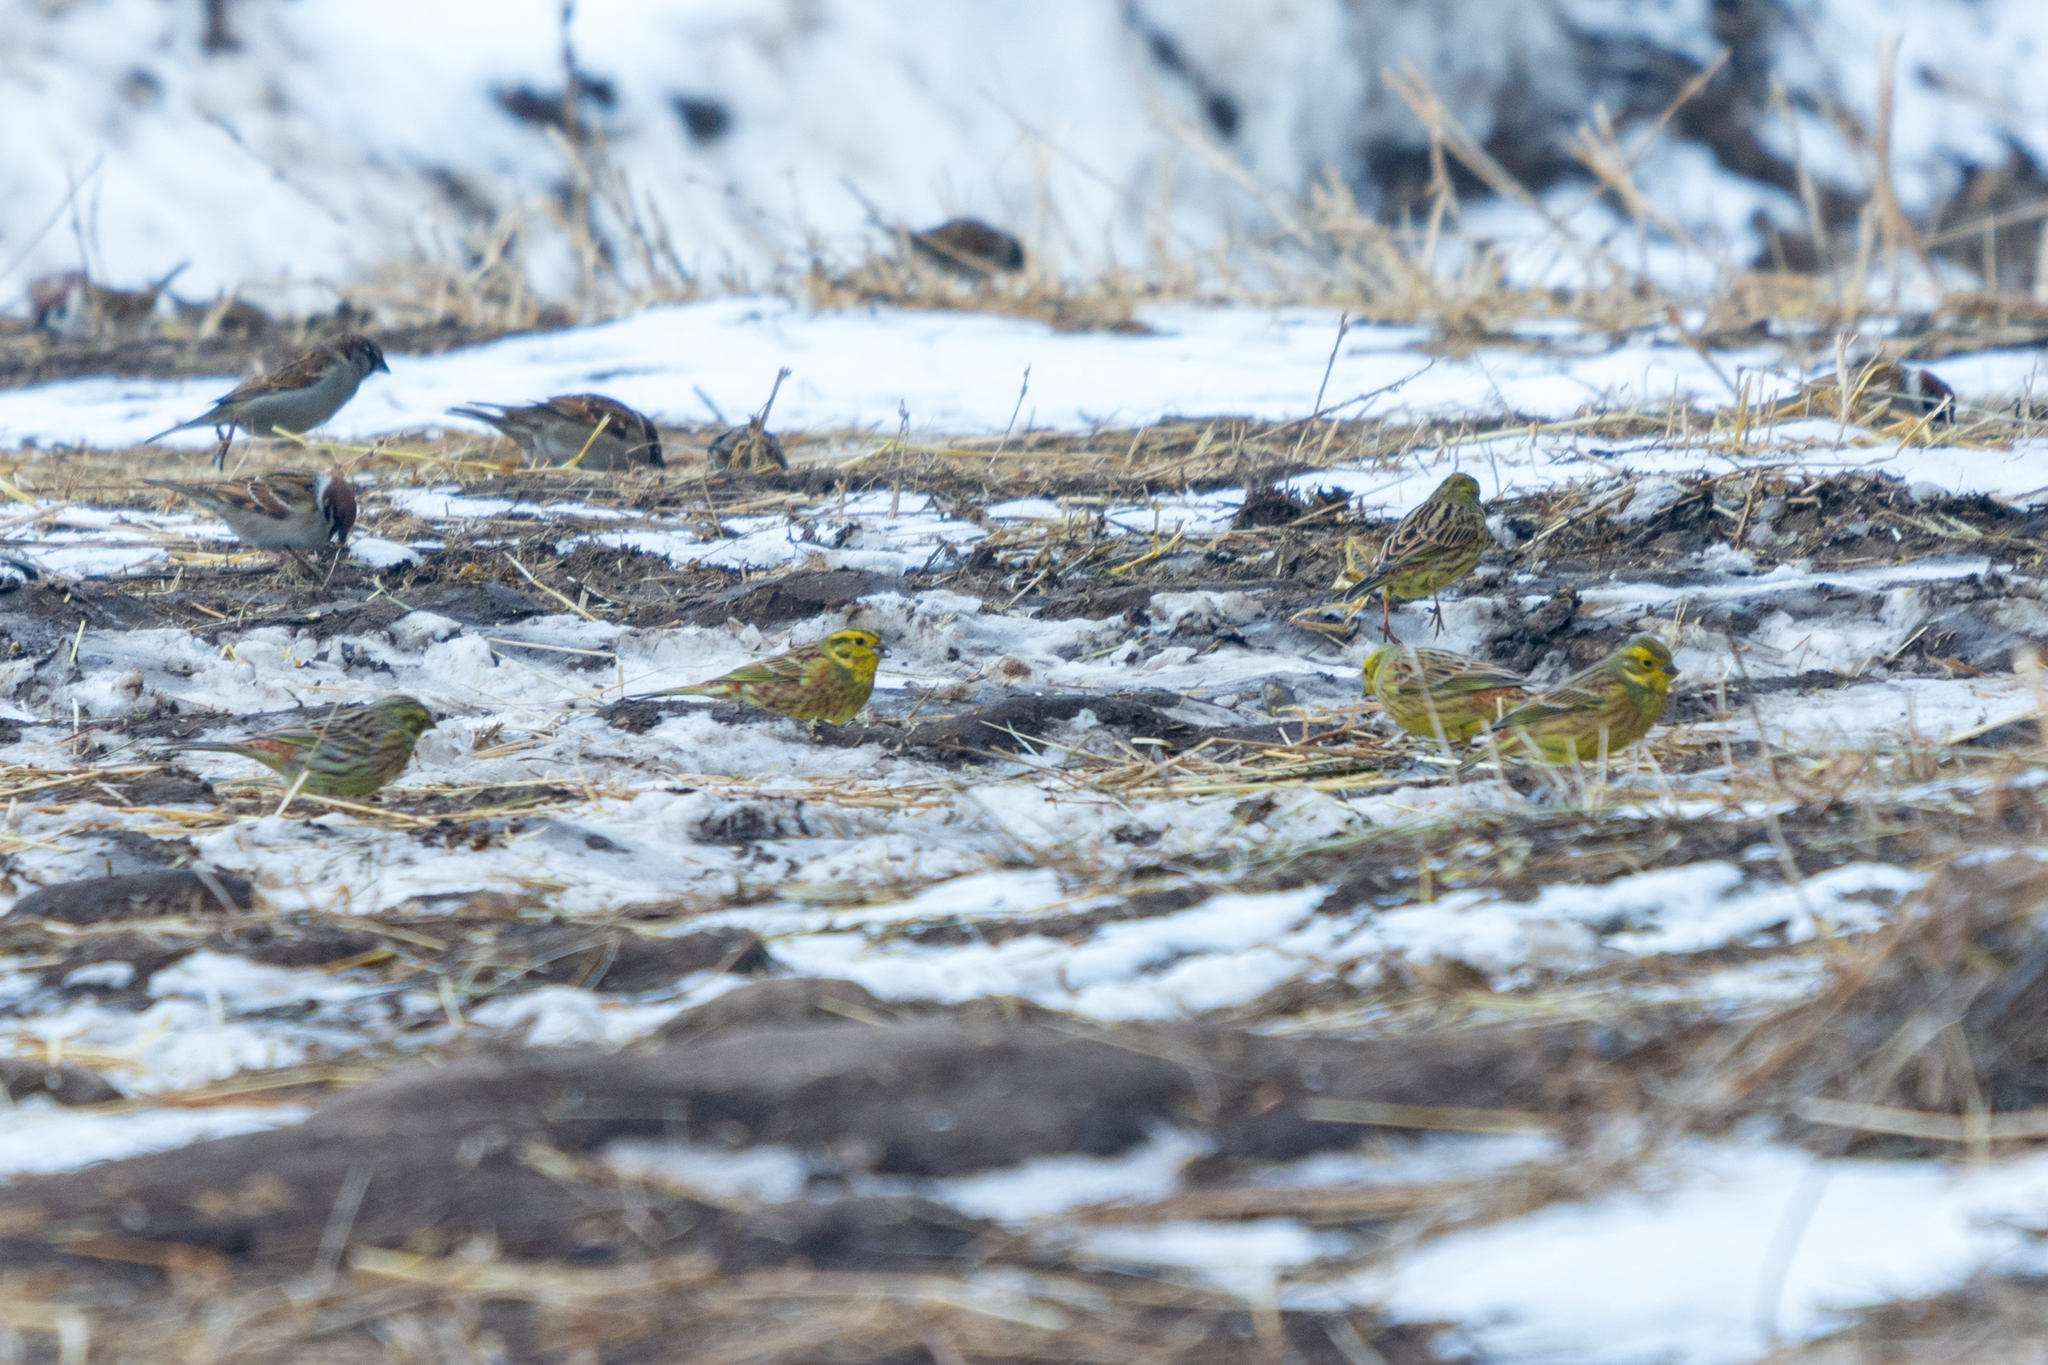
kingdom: Animalia
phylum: Chordata
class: Aves
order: Passeriformes
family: Emberizidae
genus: Emberiza
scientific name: Emberiza citrinella
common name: Yellowhammer
